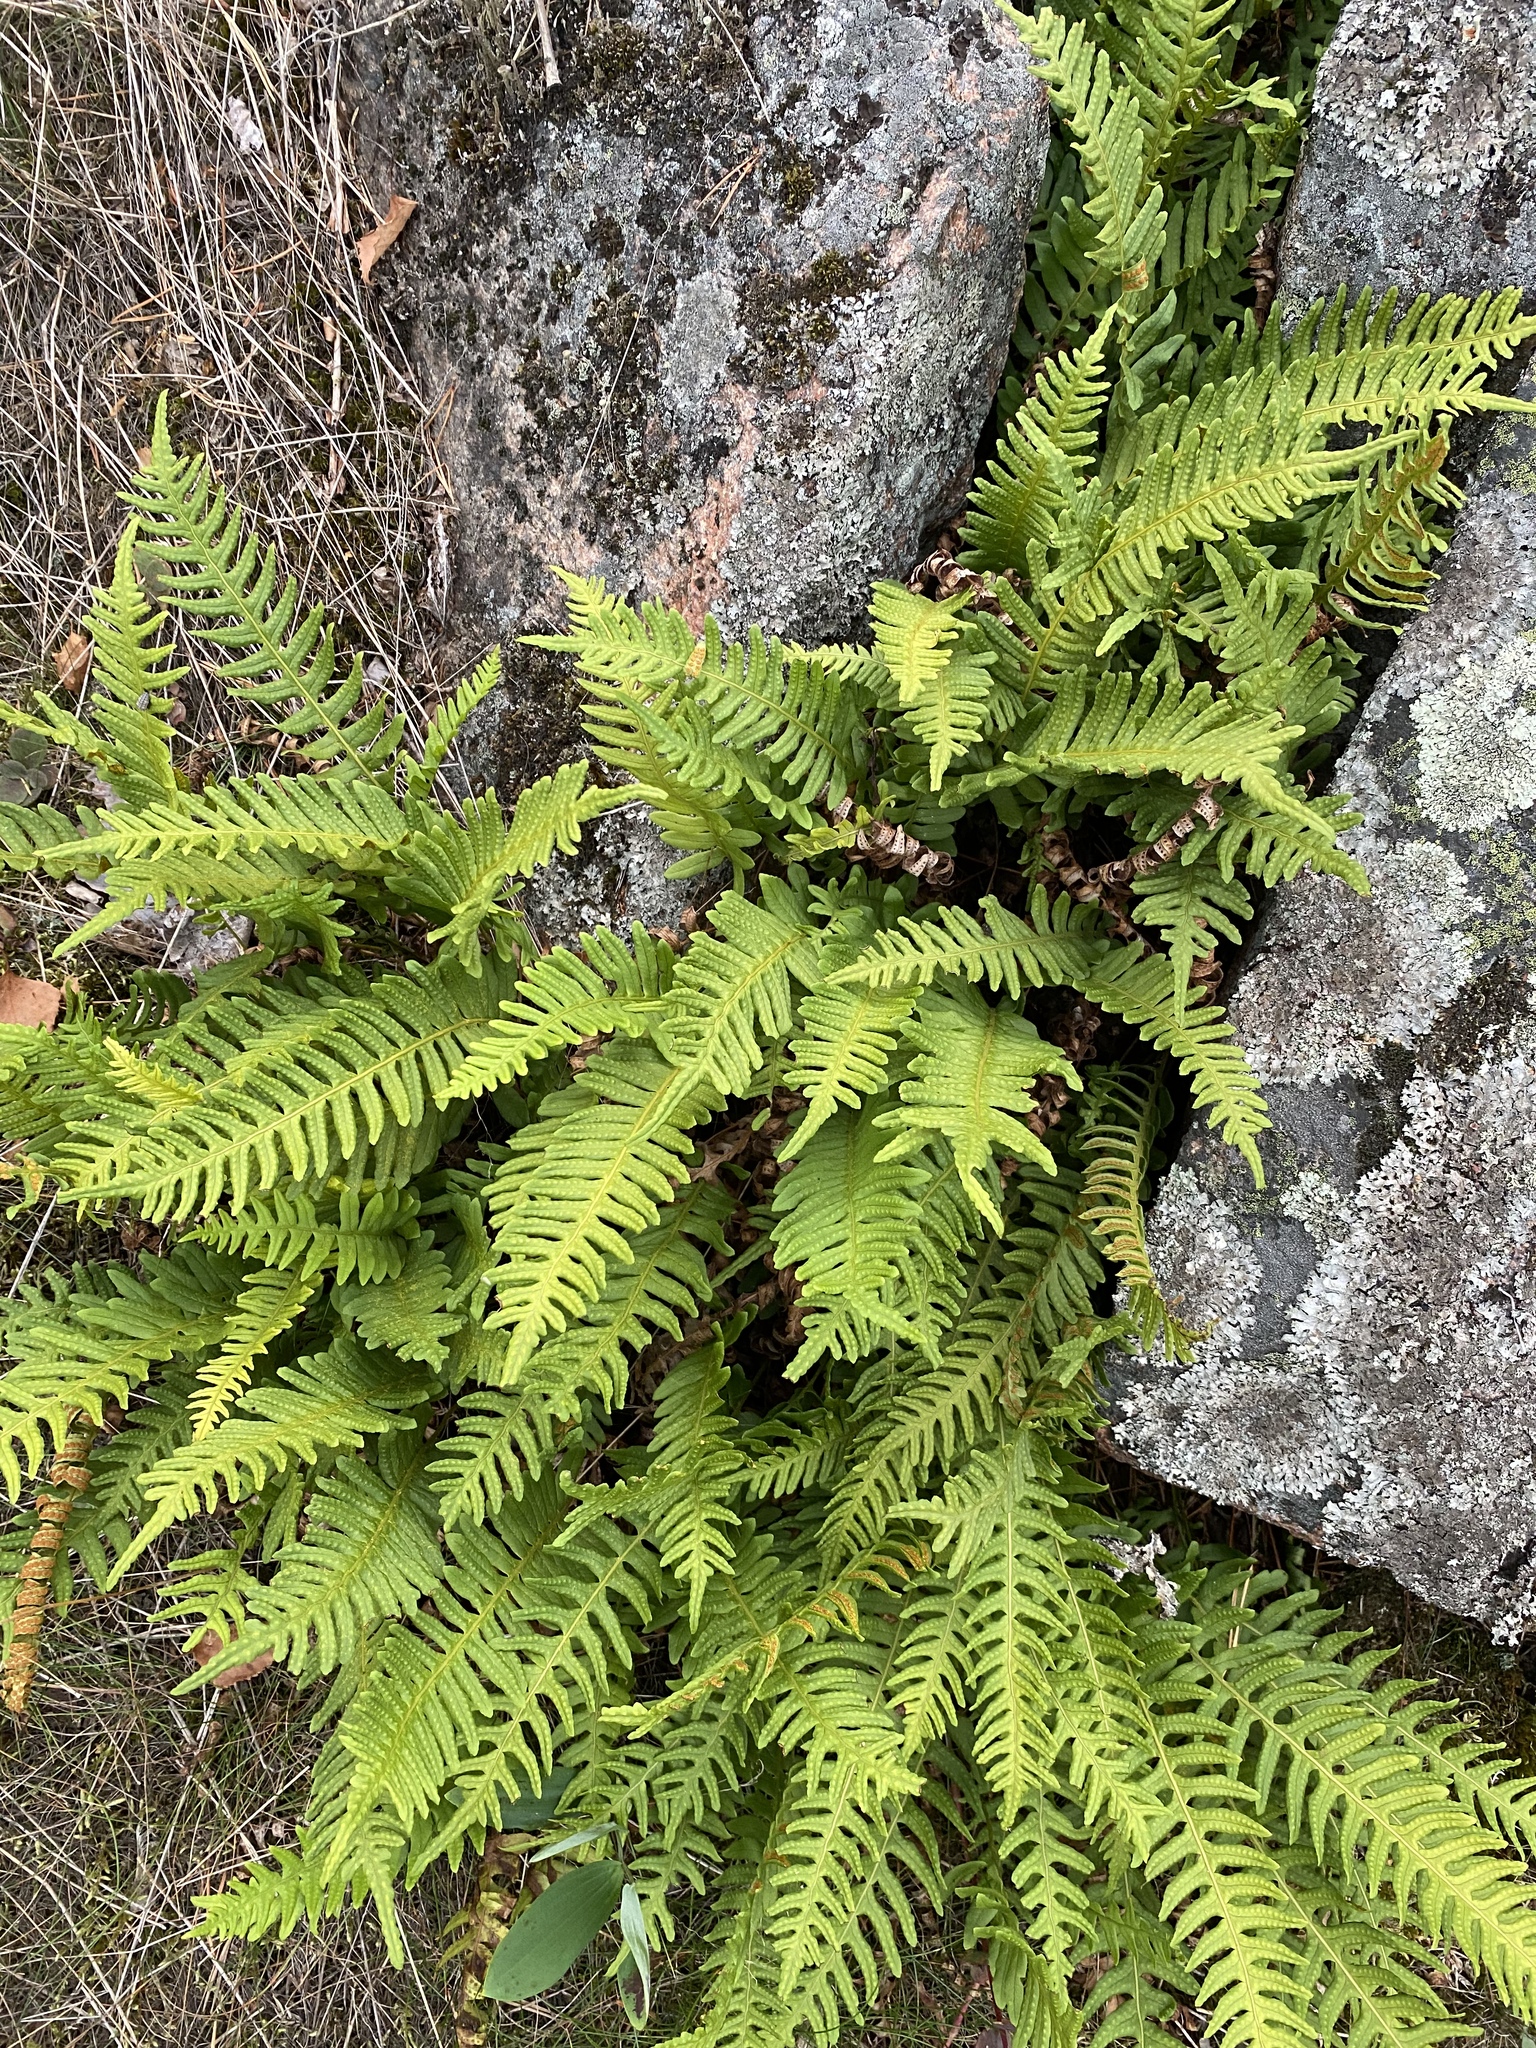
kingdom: Plantae
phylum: Tracheophyta
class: Polypodiopsida
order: Polypodiales
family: Polypodiaceae
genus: Polypodium
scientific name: Polypodium vulgare
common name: Common polypody
